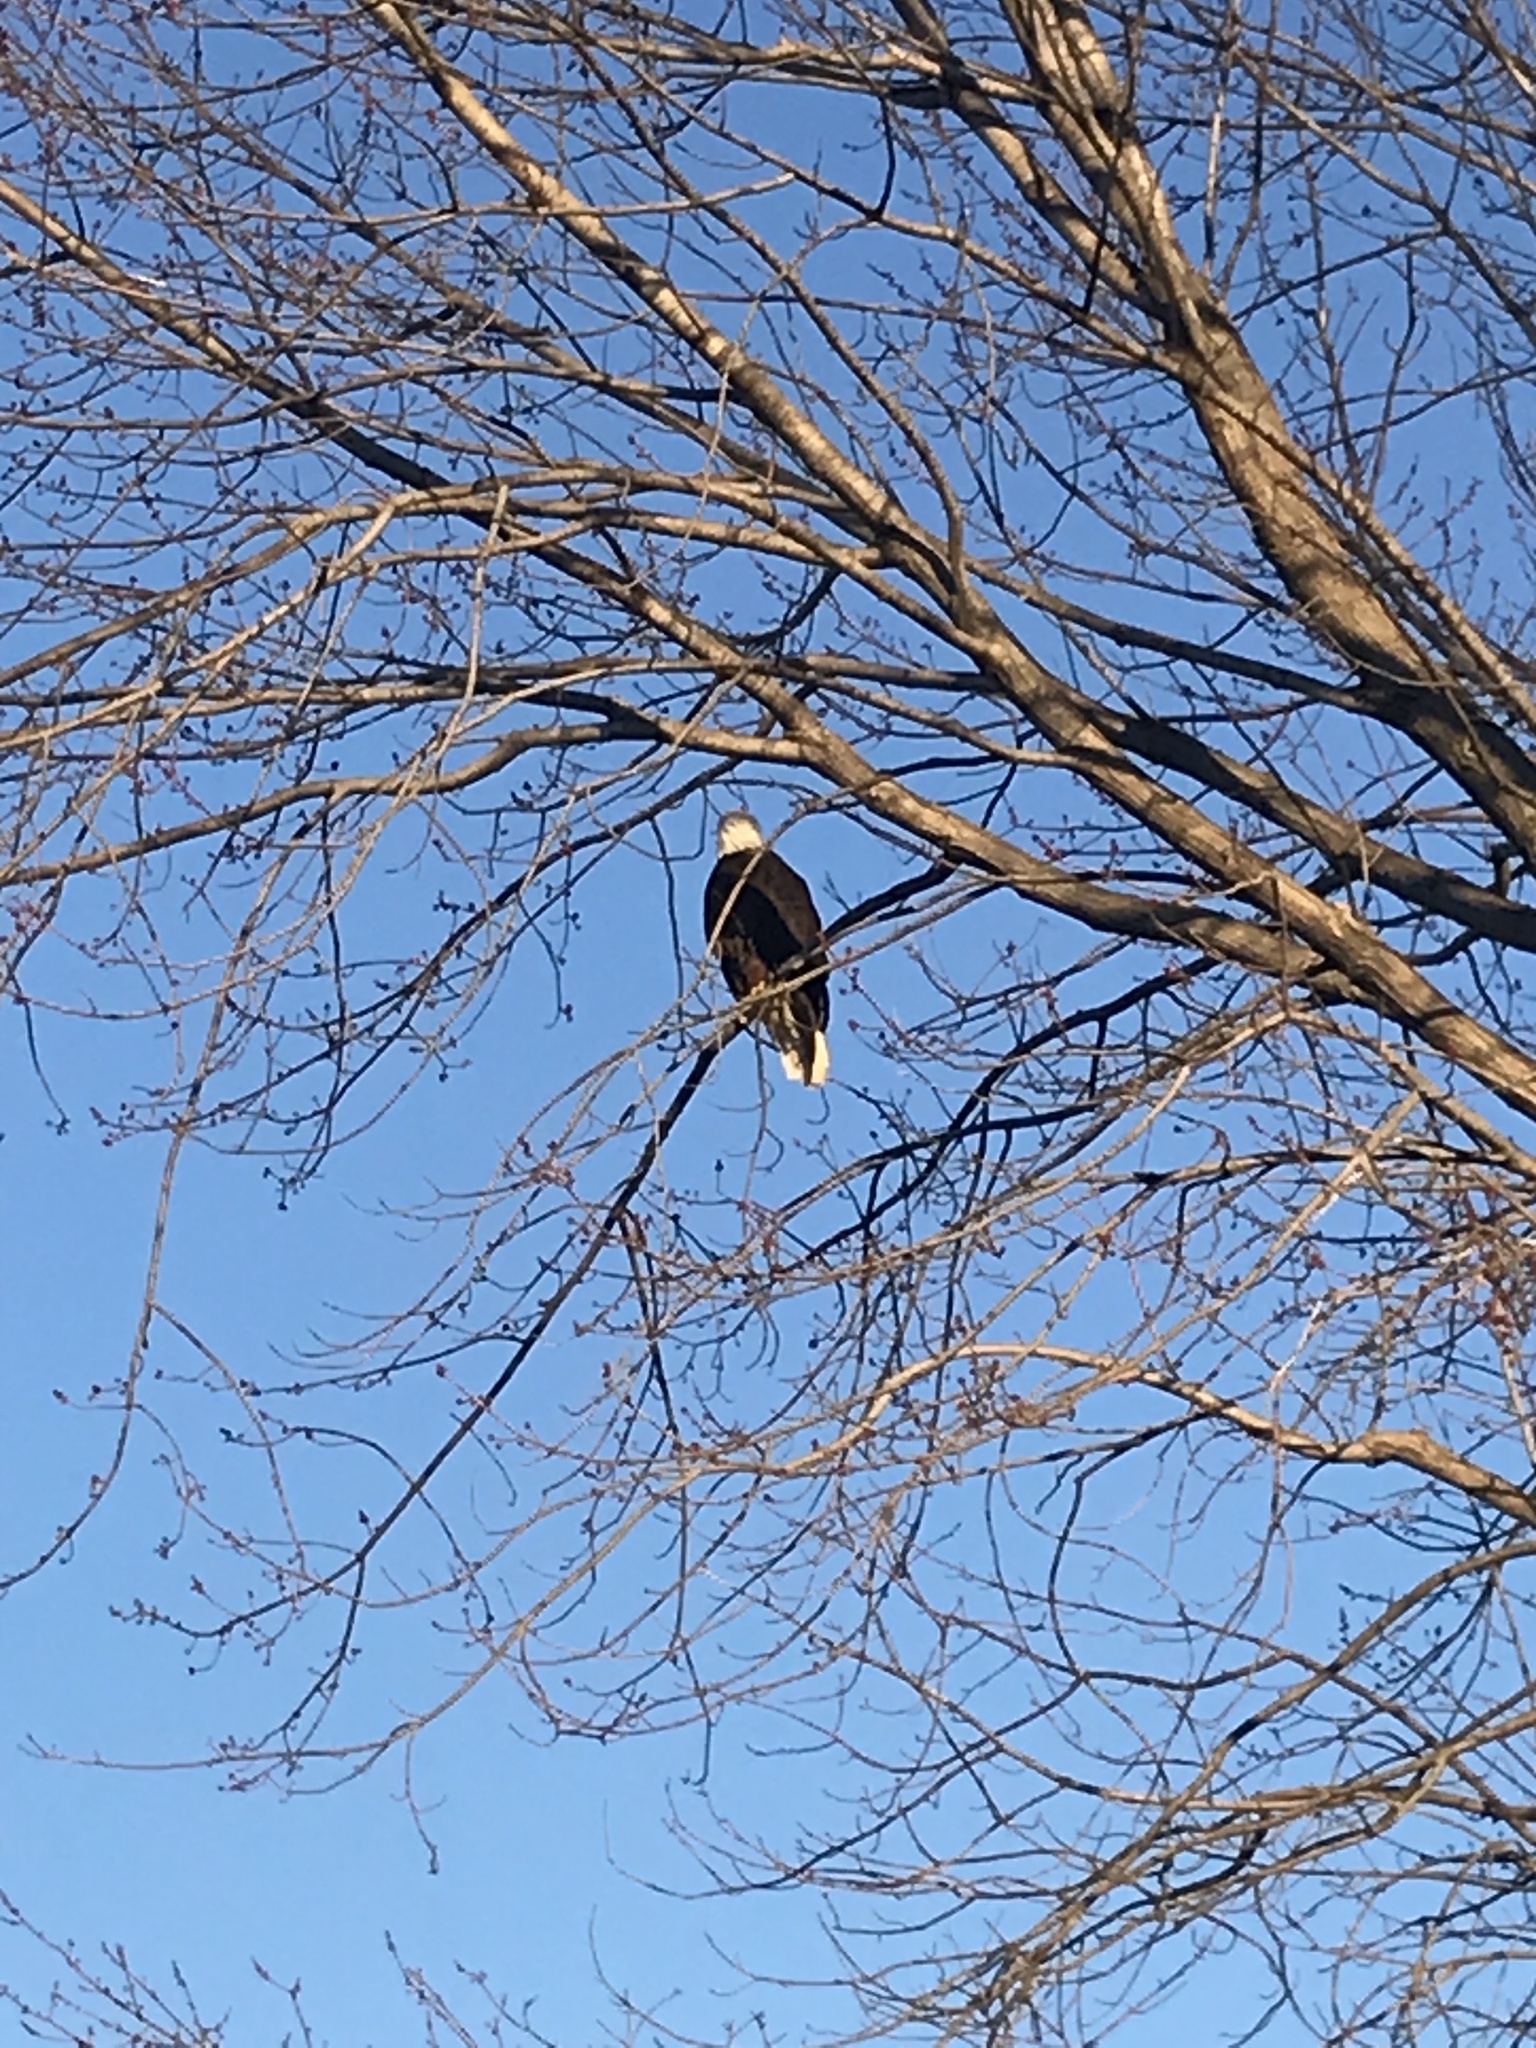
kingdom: Animalia
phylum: Chordata
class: Aves
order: Accipitriformes
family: Accipitridae
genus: Haliaeetus
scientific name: Haliaeetus leucocephalus
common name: Bald eagle
